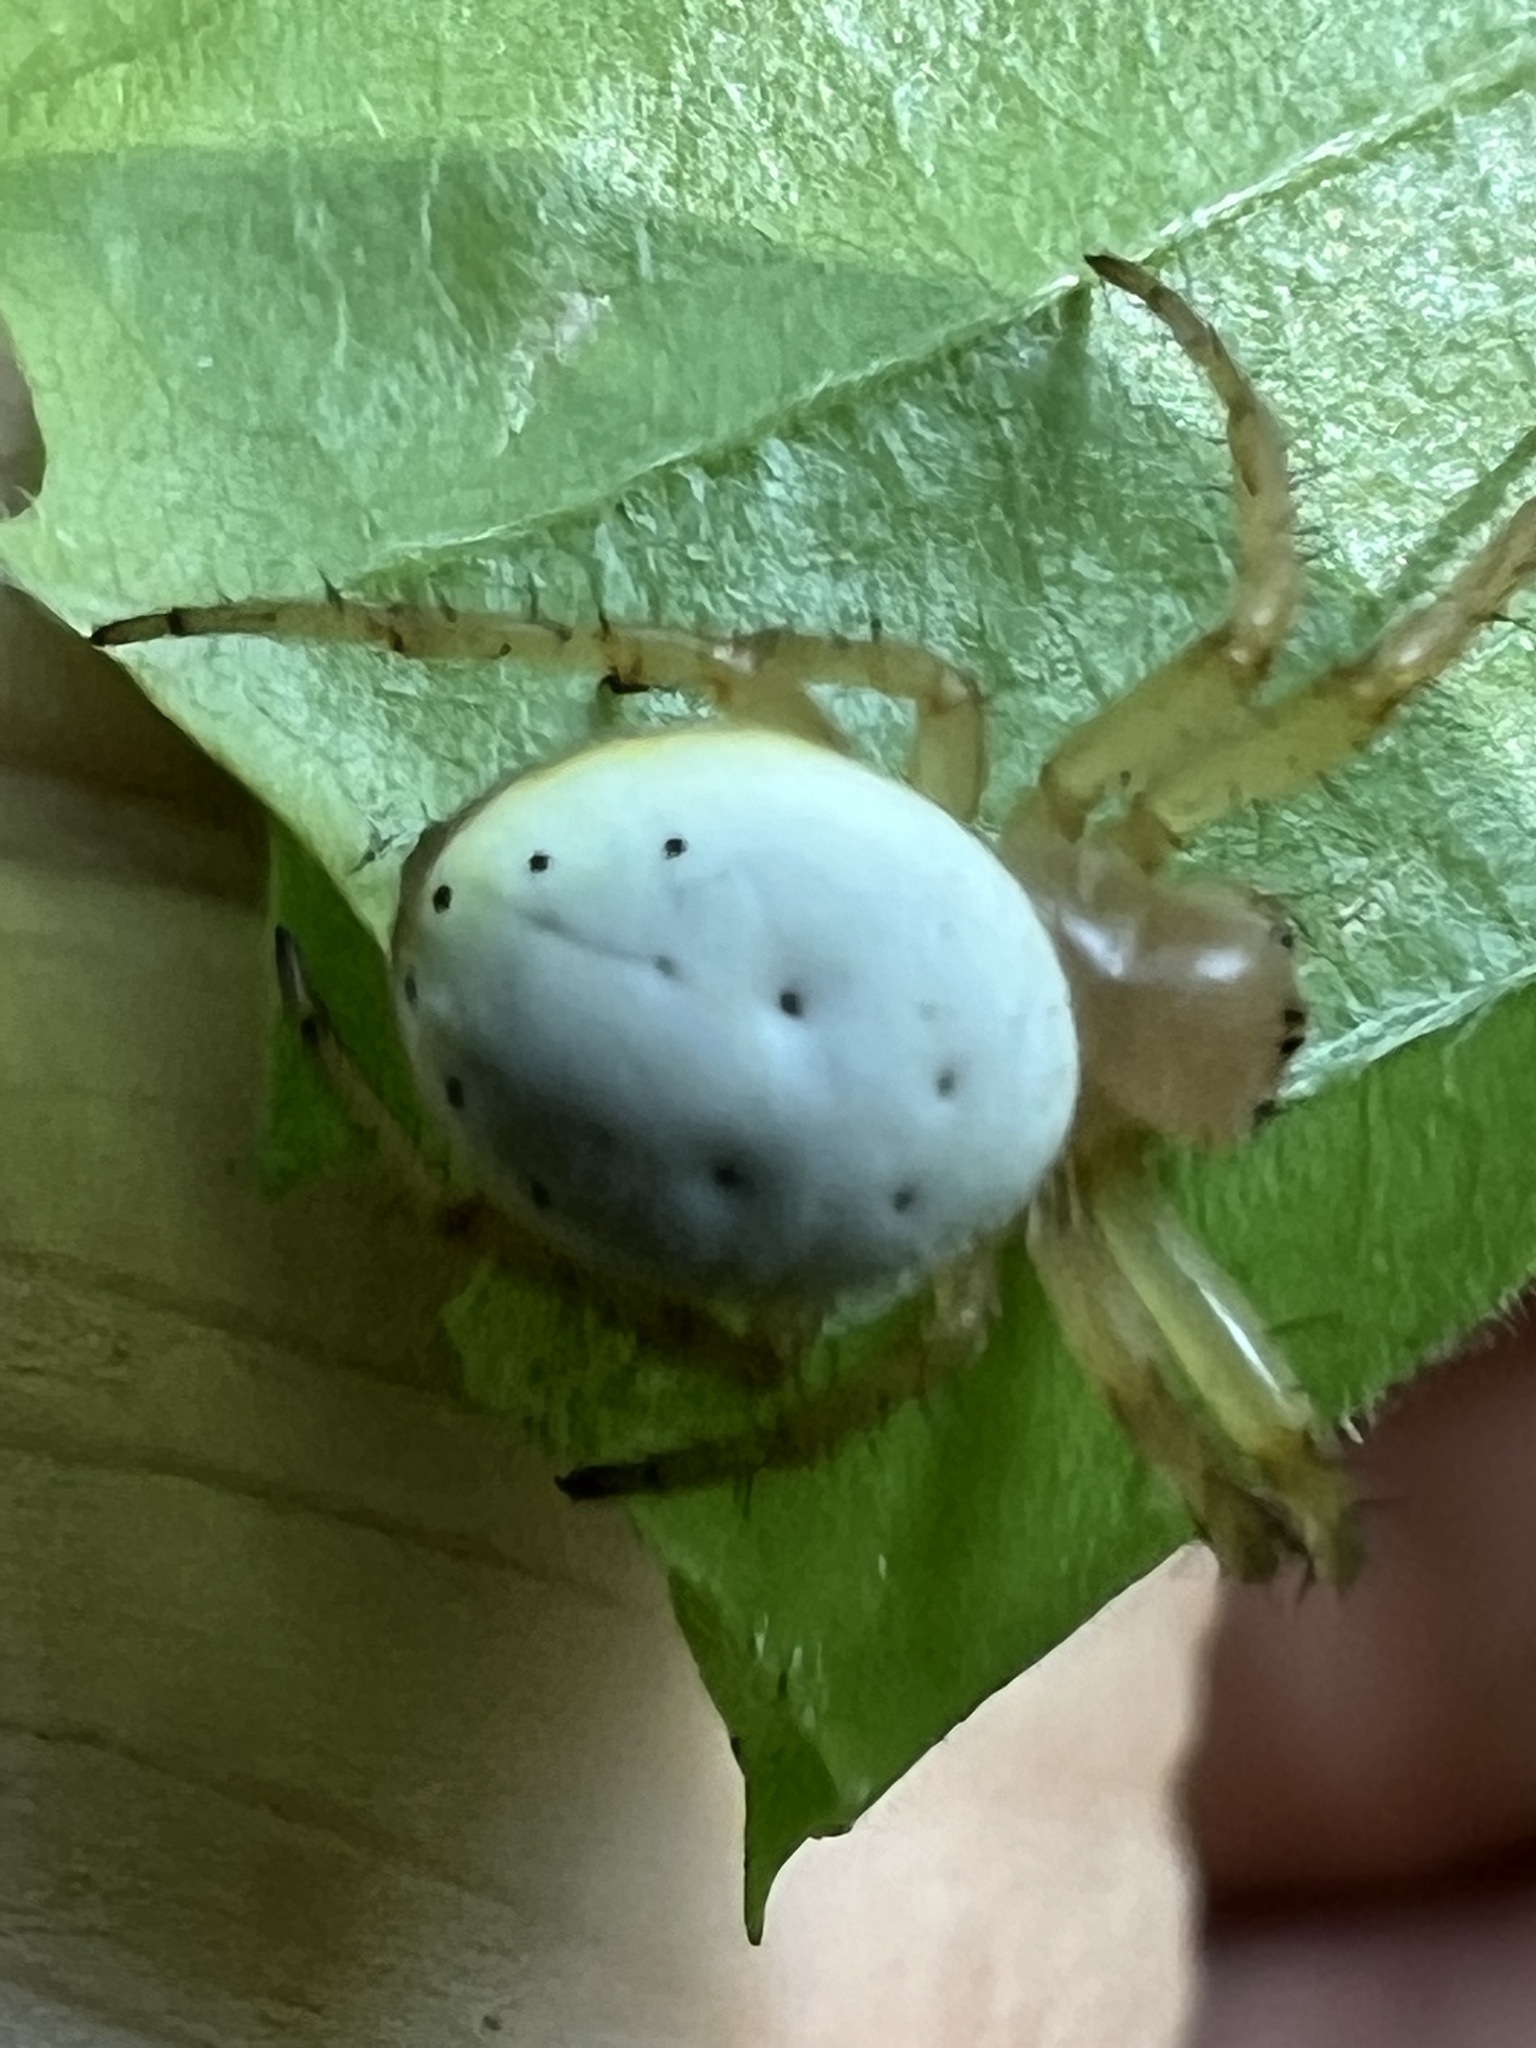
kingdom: Animalia
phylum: Arthropoda
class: Arachnida
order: Araneae
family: Araneidae
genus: Araniella
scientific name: Araniella displicata
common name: Sixspotted orb weaver
